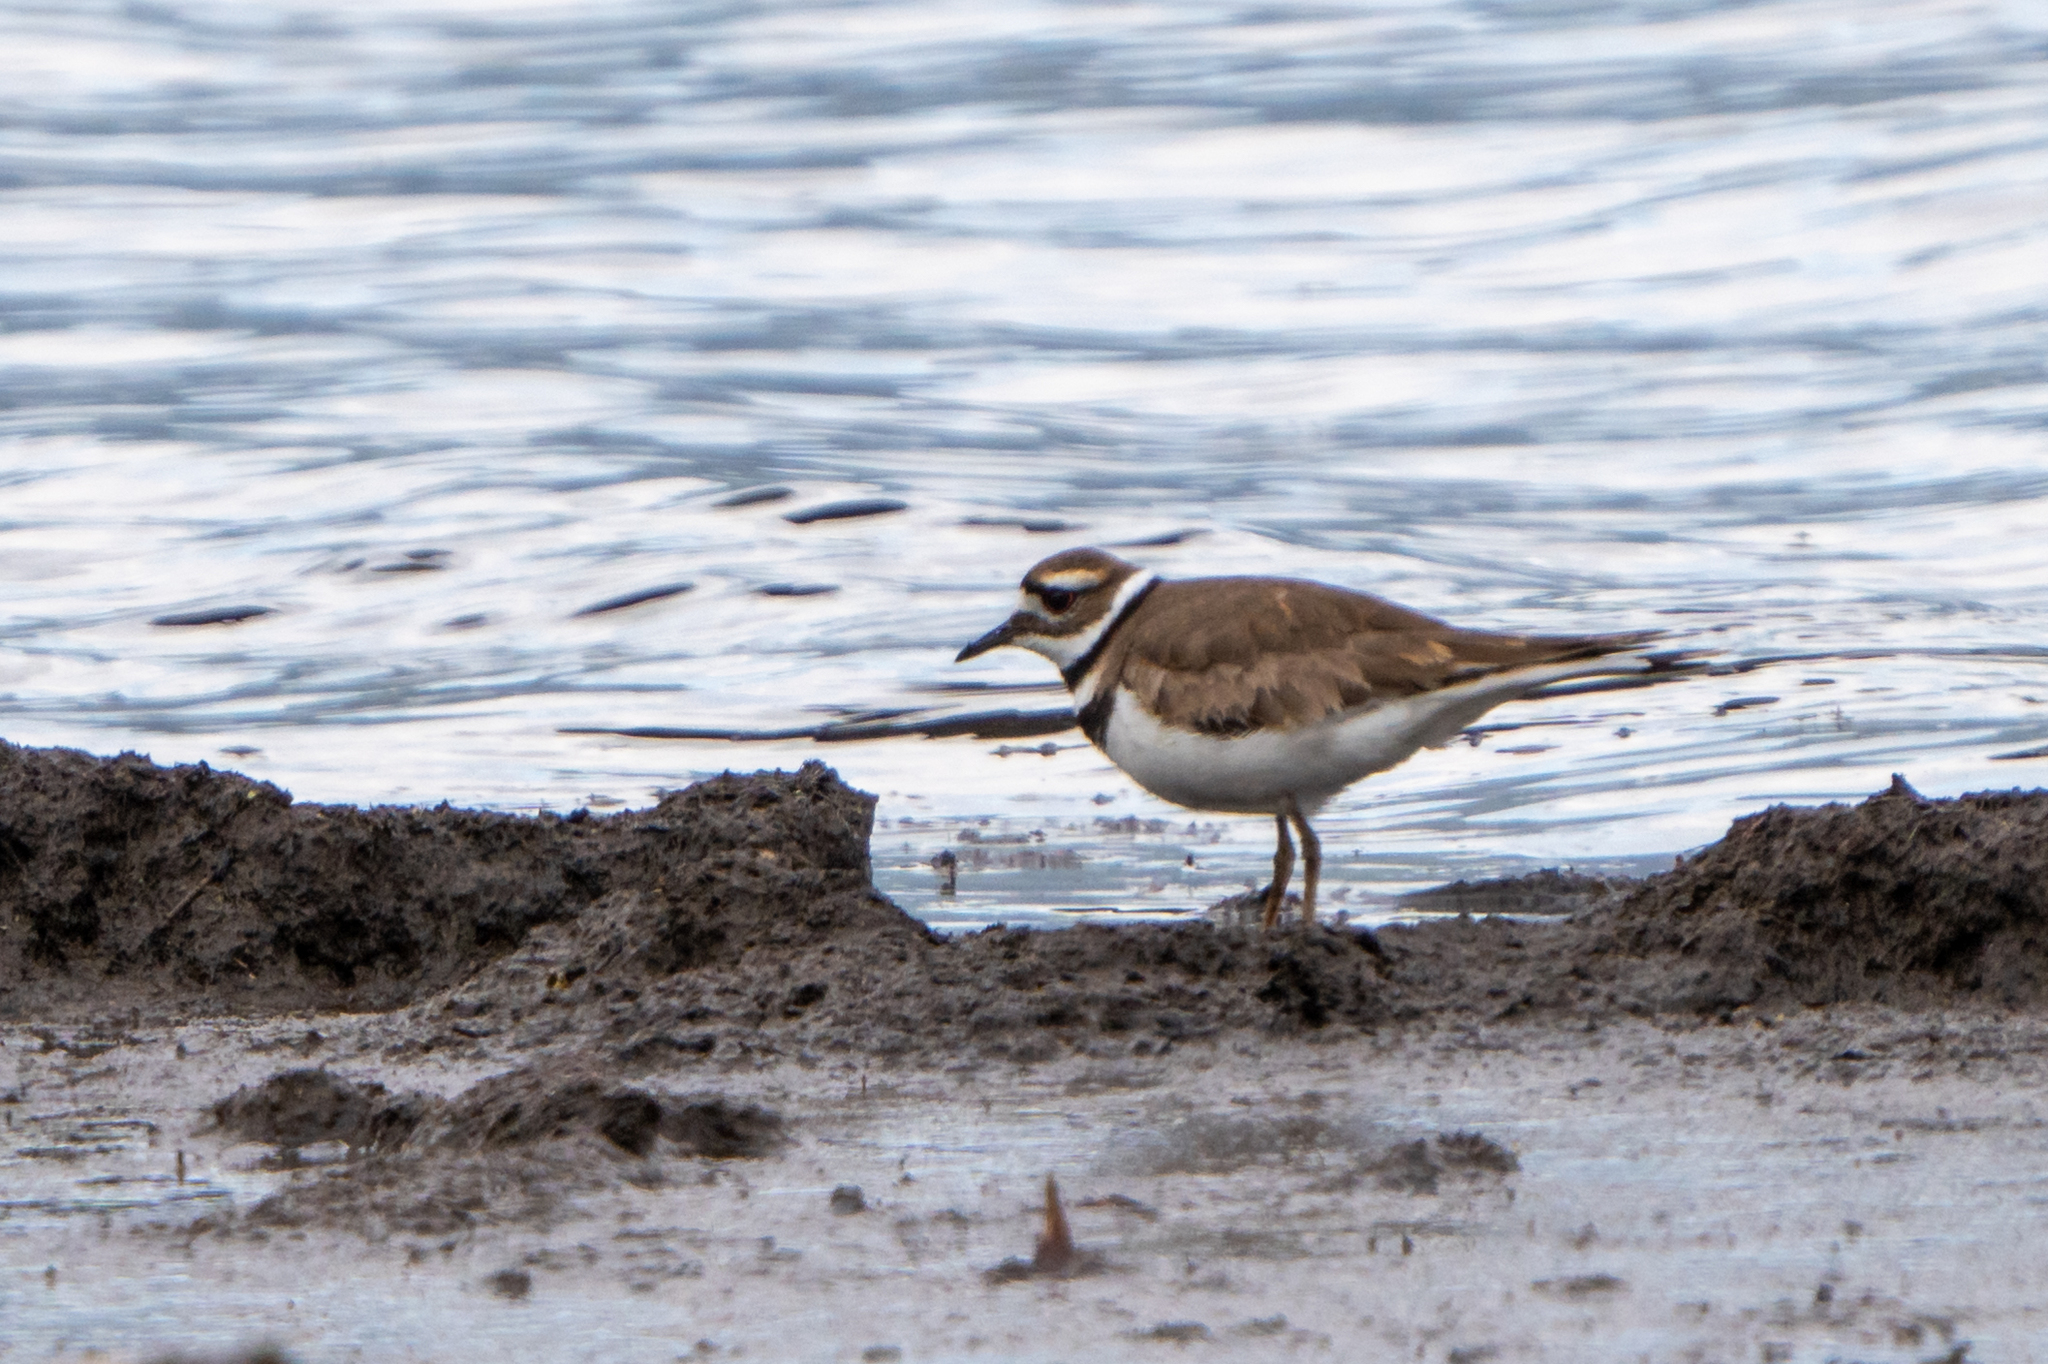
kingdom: Animalia
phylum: Chordata
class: Aves
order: Charadriiformes
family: Charadriidae
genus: Charadrius
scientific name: Charadrius vociferus
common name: Killdeer
